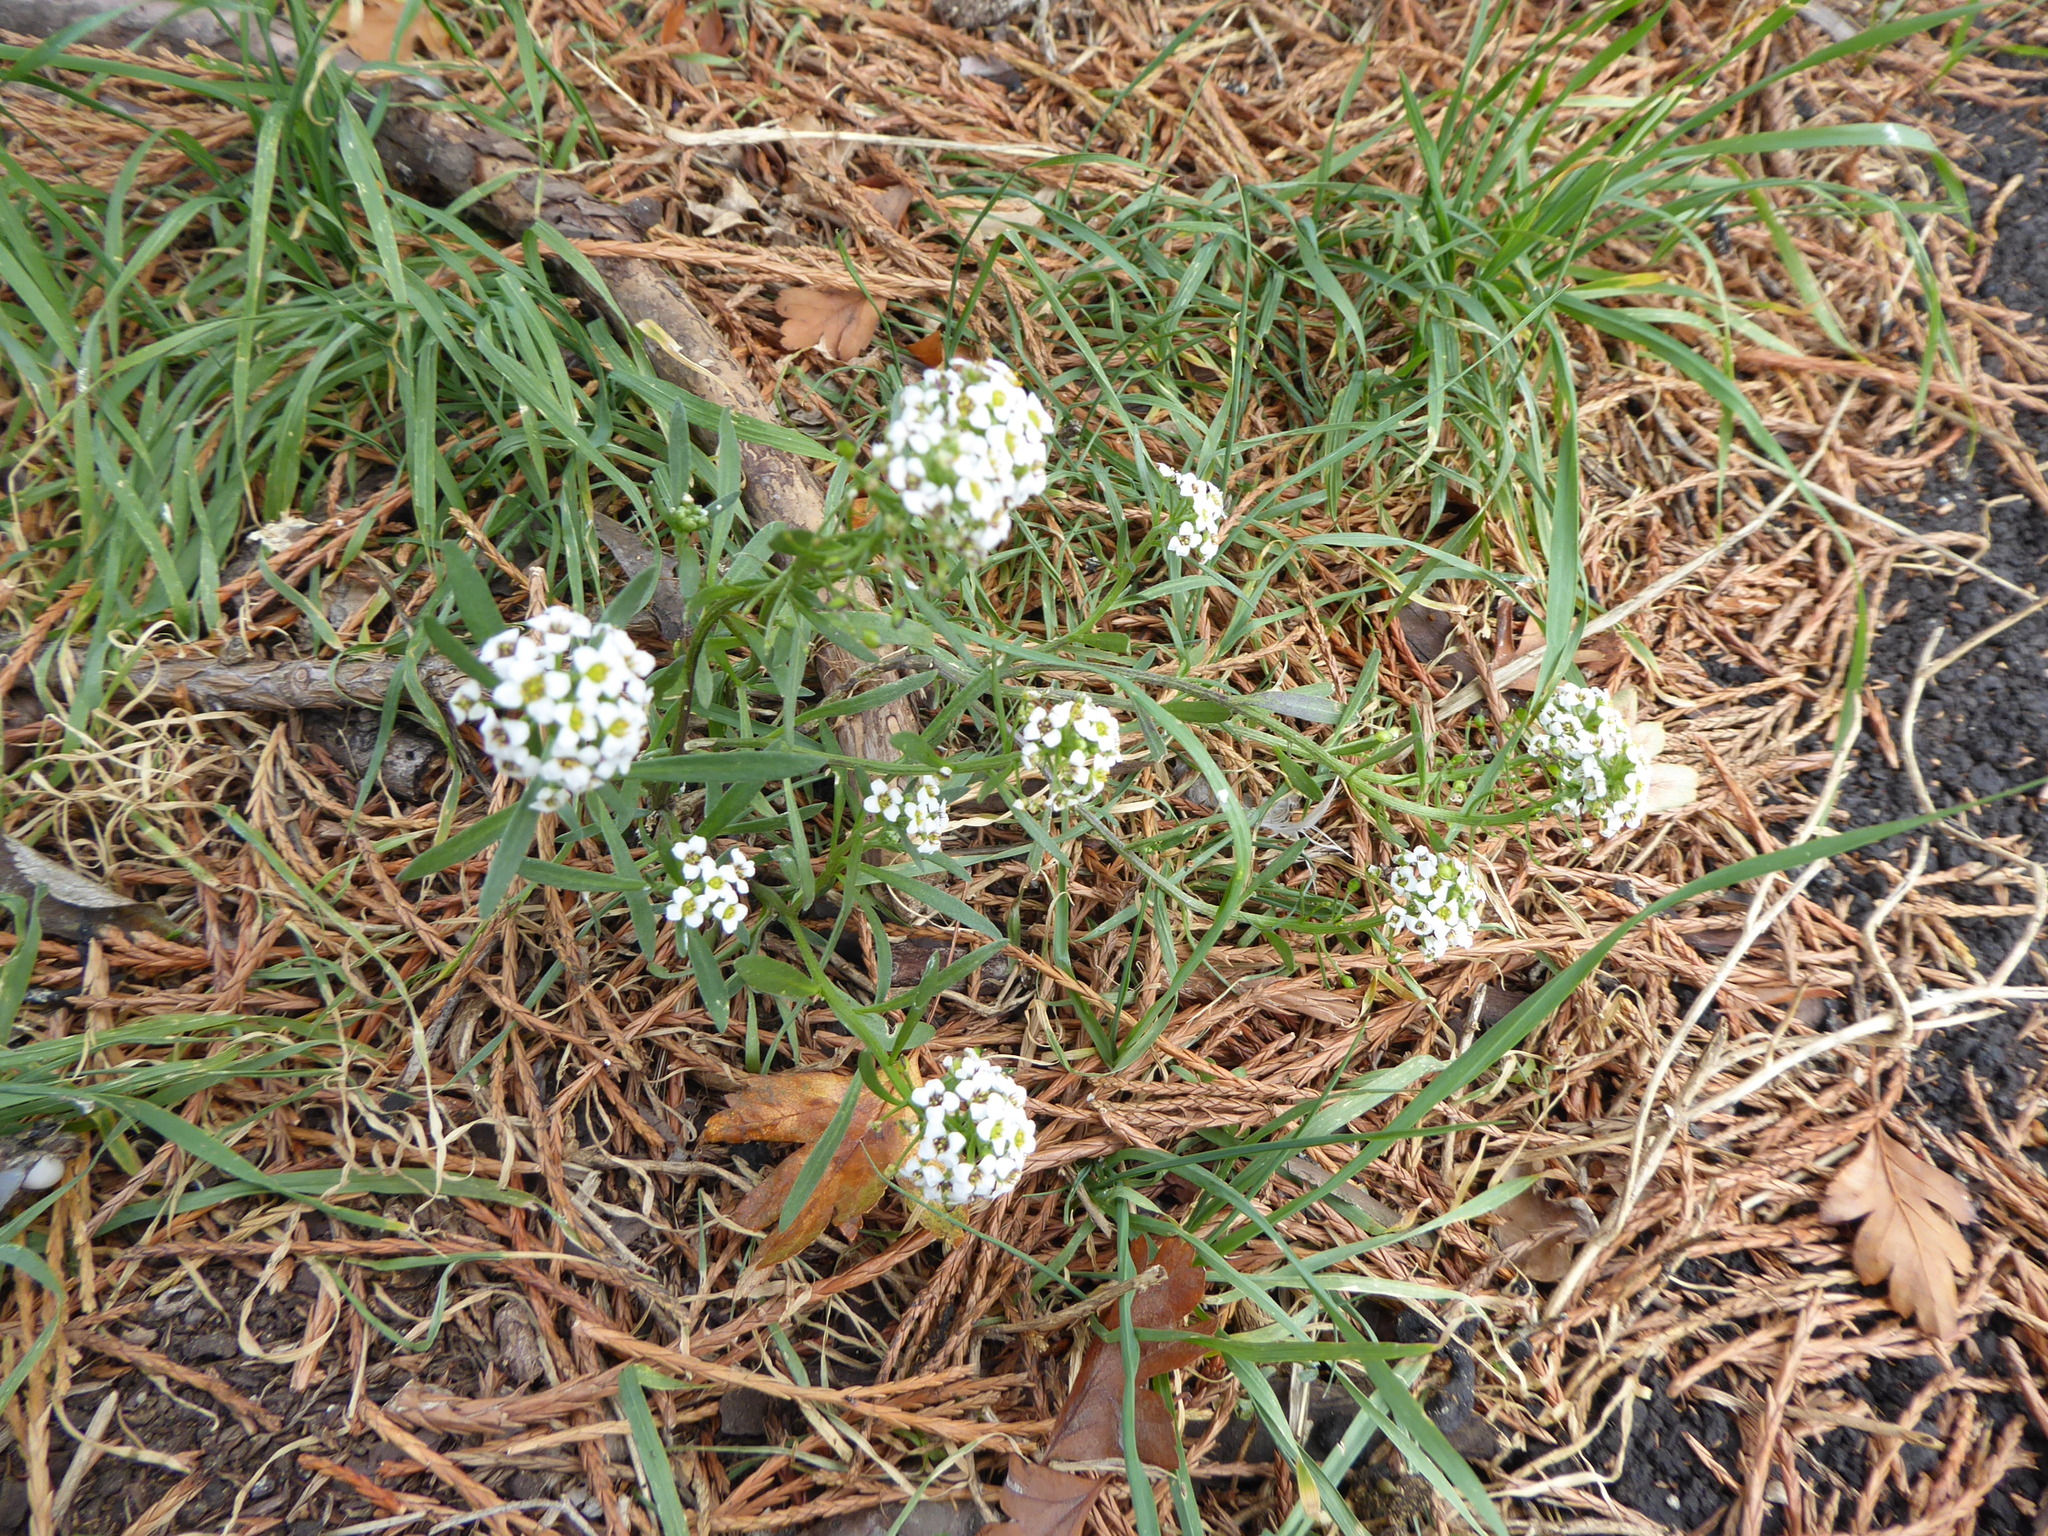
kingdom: Plantae
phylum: Tracheophyta
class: Magnoliopsida
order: Brassicales
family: Brassicaceae
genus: Lobularia
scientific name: Lobularia maritima
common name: Sweet alison
